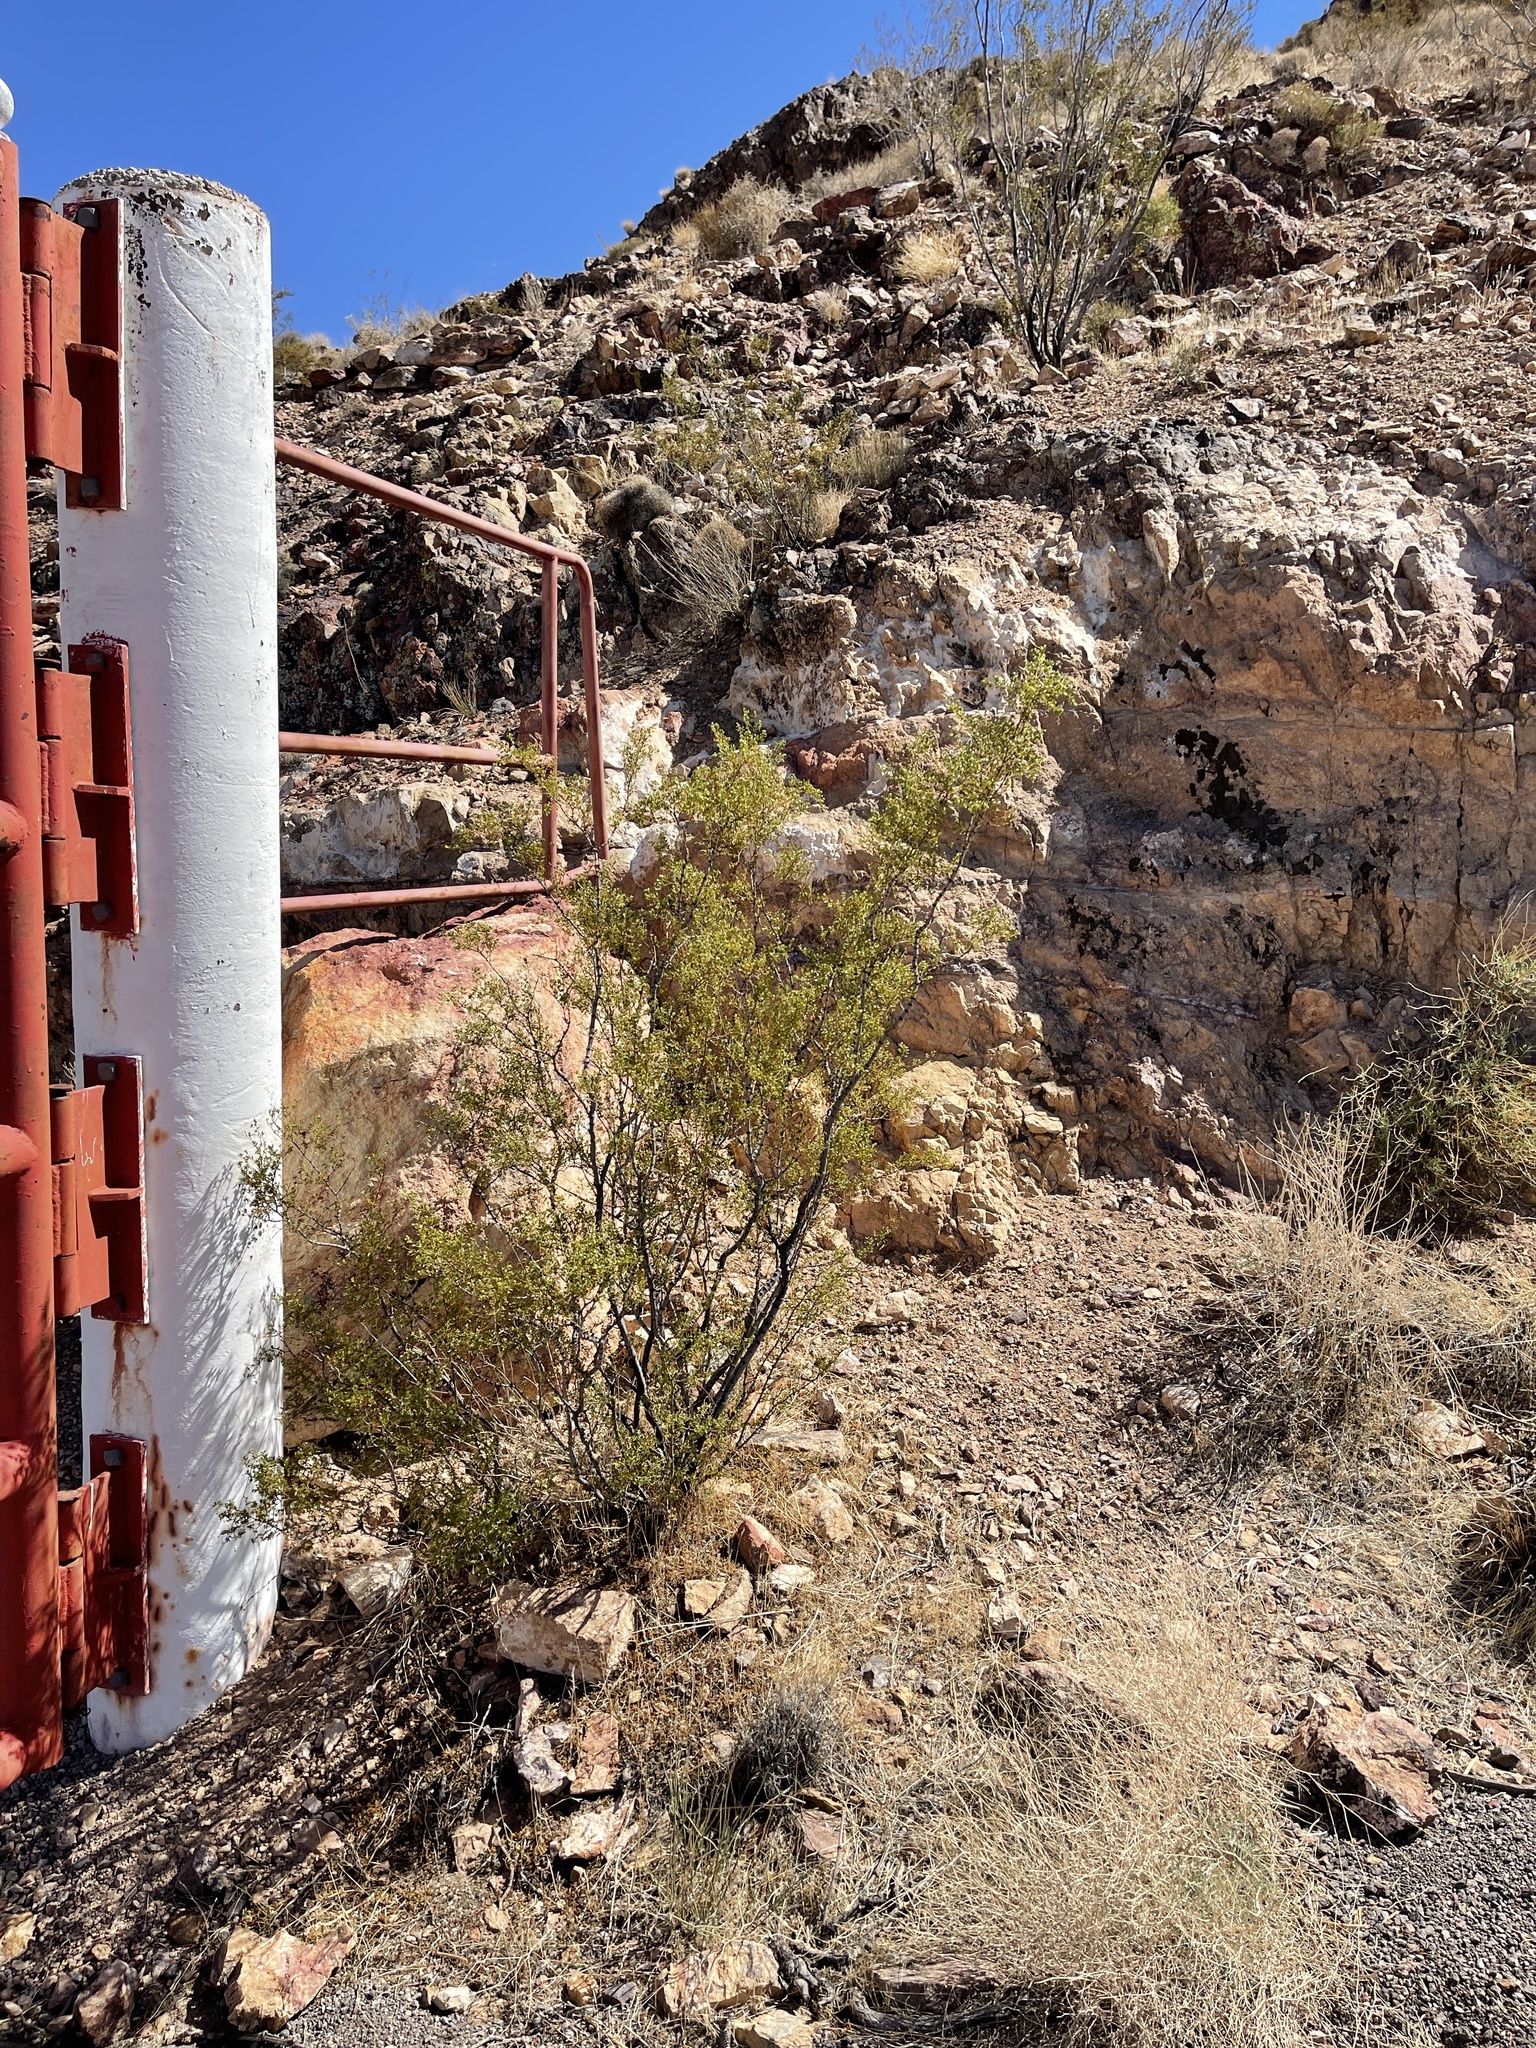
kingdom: Plantae
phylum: Tracheophyta
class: Magnoliopsida
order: Zygophyllales
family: Zygophyllaceae
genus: Larrea
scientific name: Larrea tridentata
